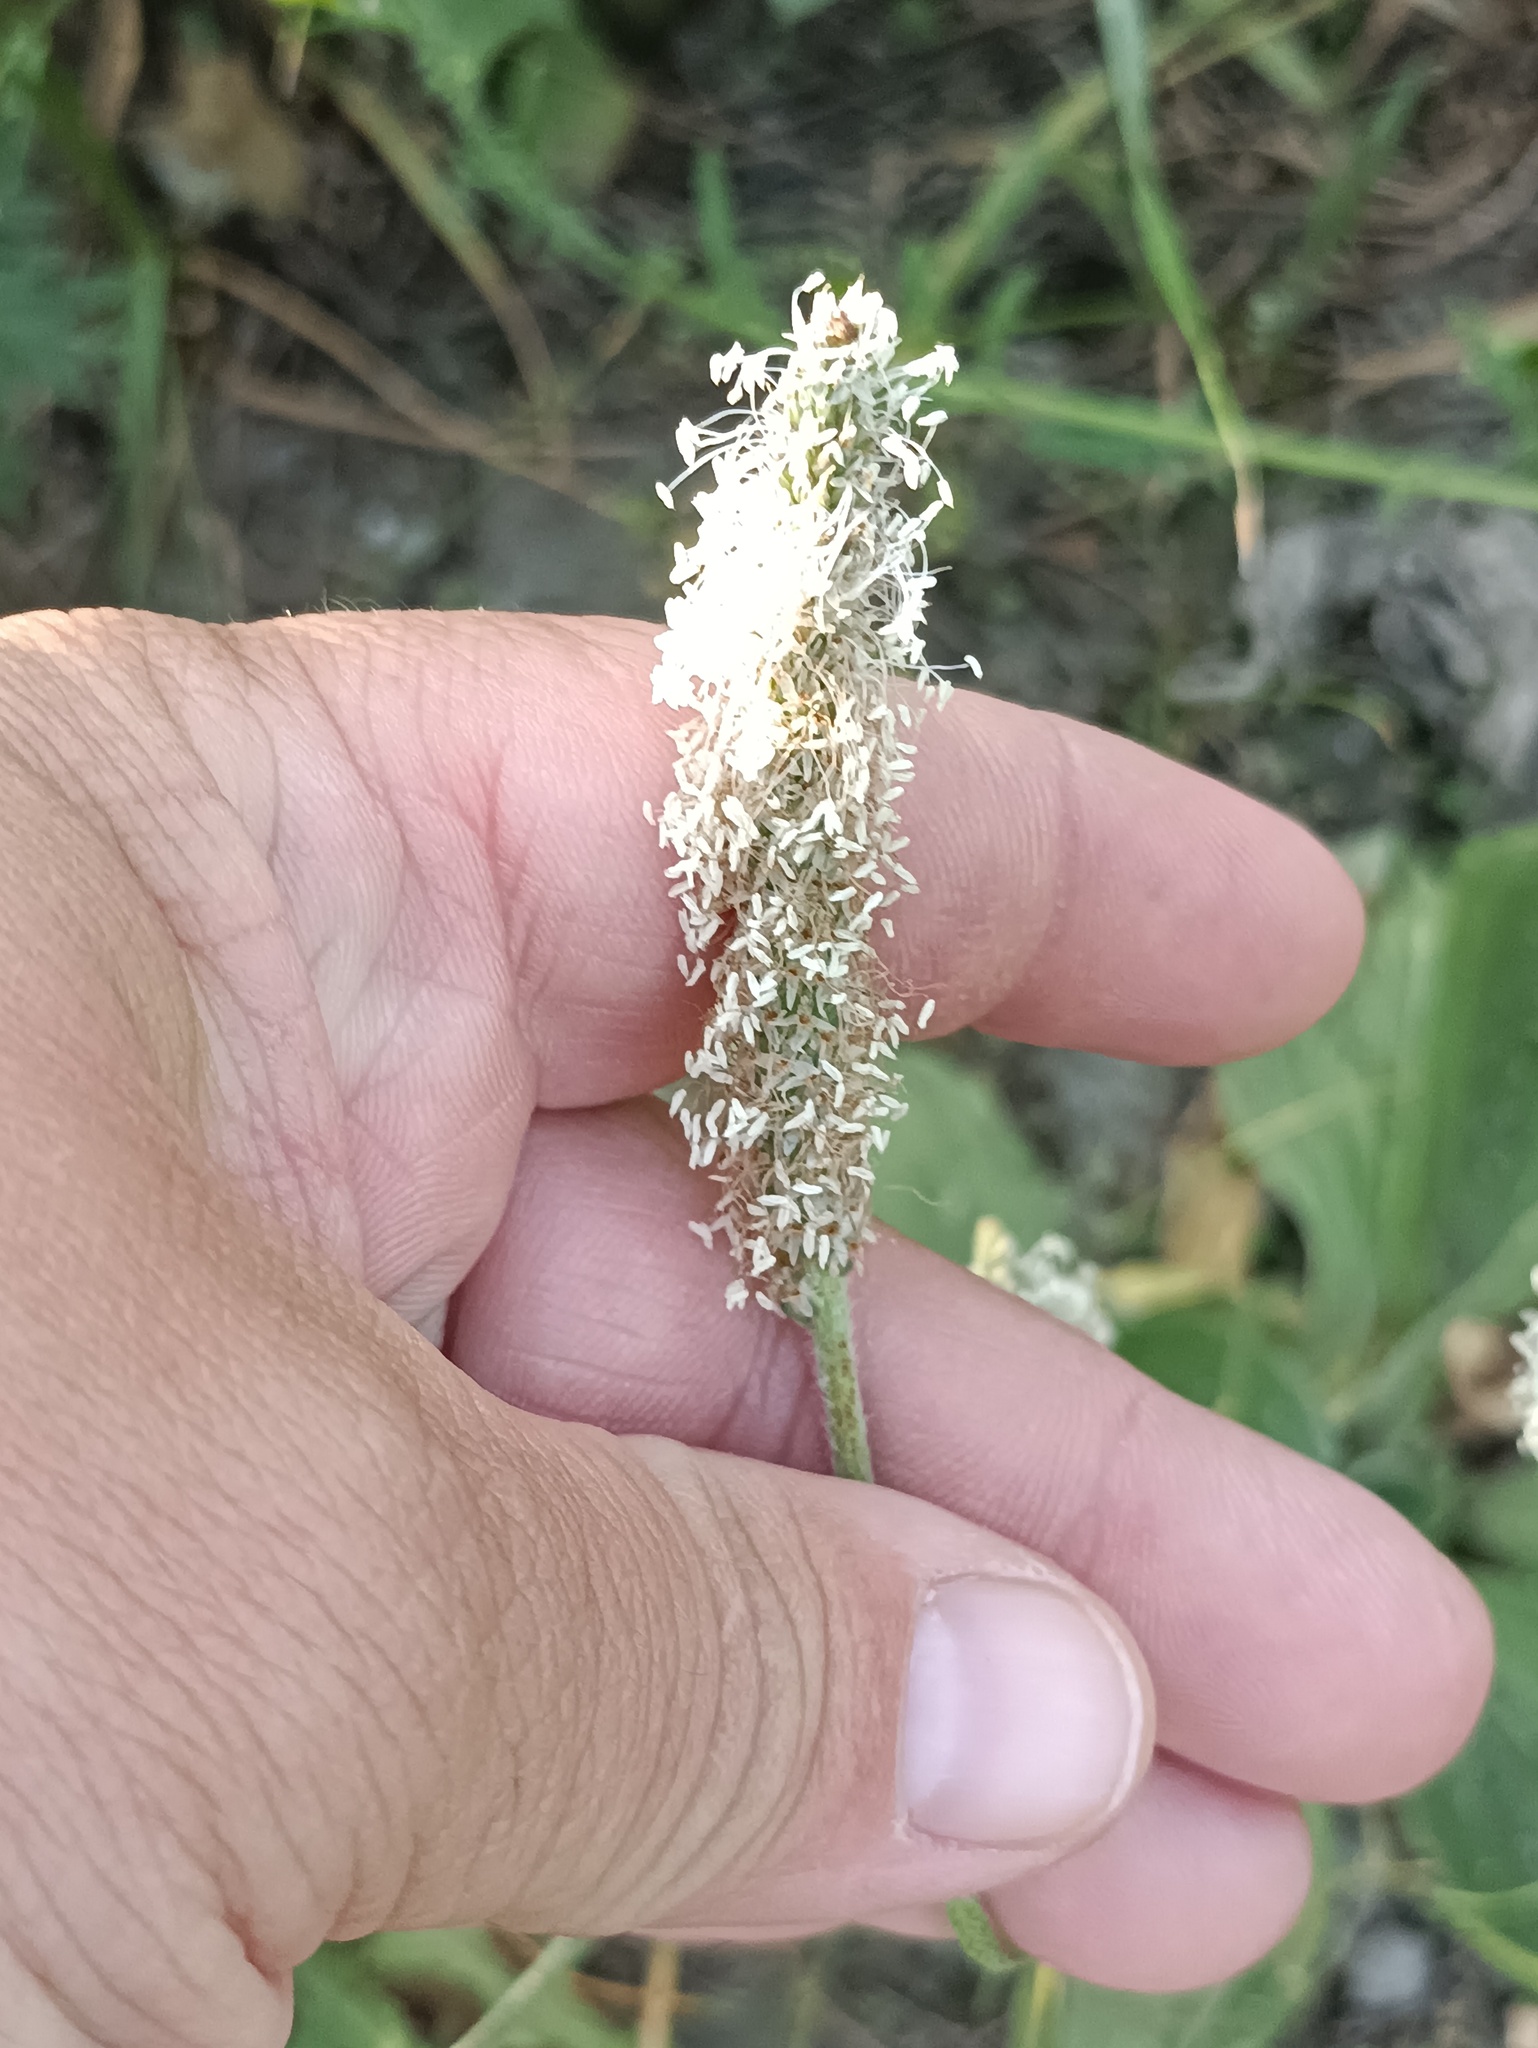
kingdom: Plantae
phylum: Tracheophyta
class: Magnoliopsida
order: Lamiales
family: Plantaginaceae
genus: Plantago
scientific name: Plantago media
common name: Hoary plantain
